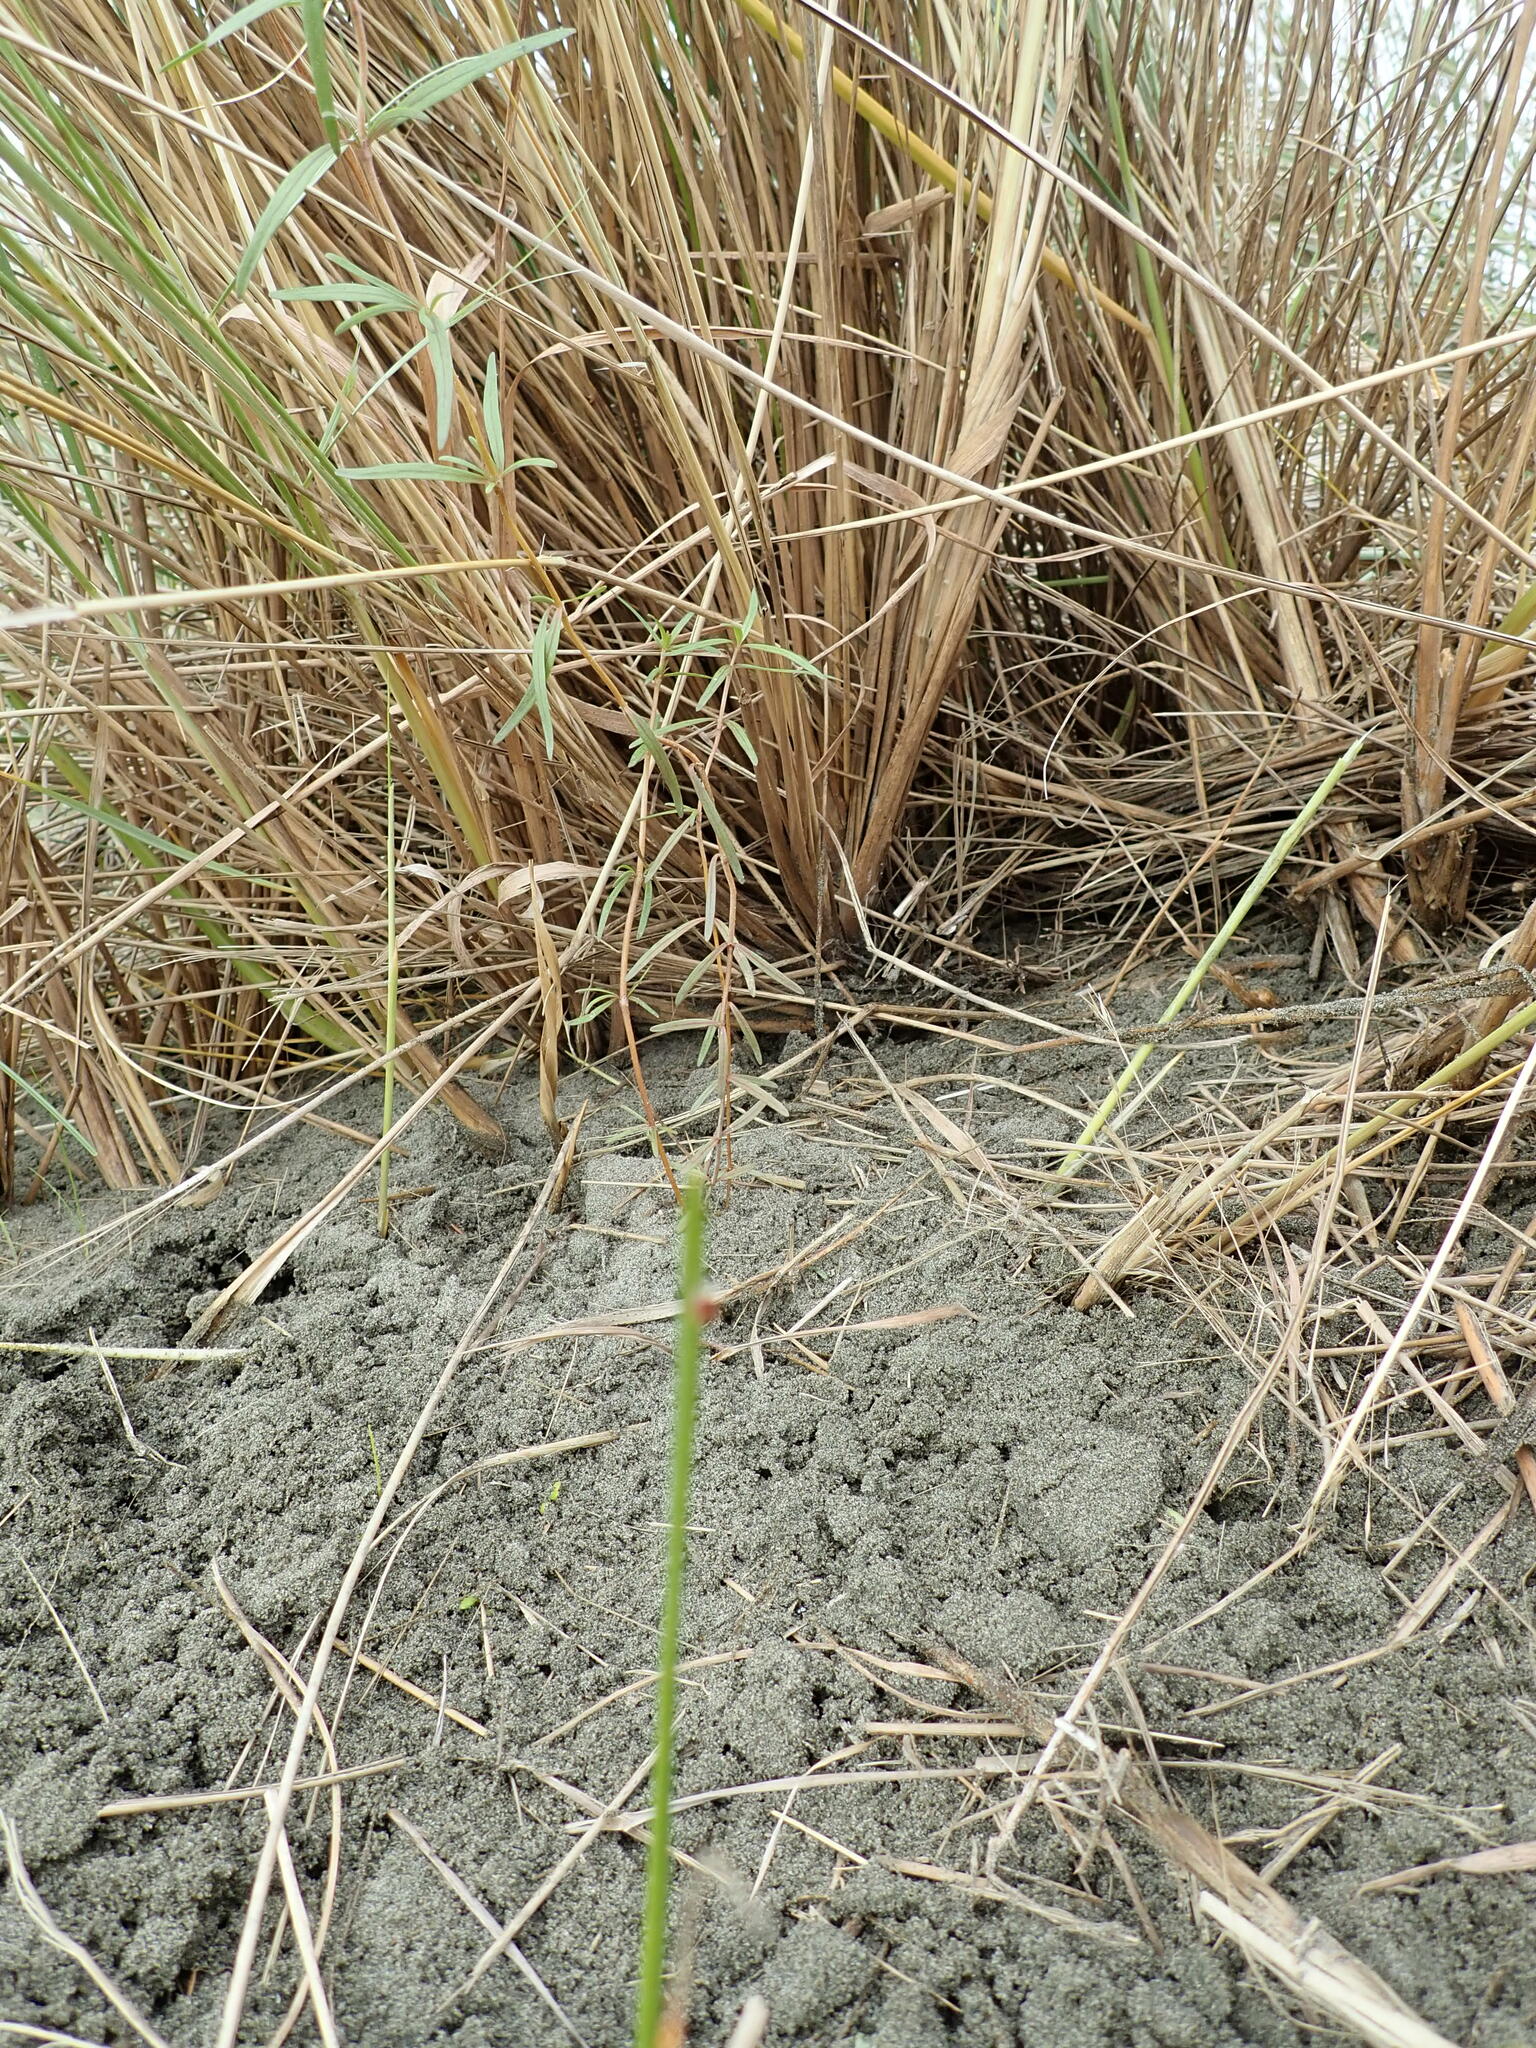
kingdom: Plantae
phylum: Tracheophyta
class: Magnoliopsida
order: Gentianales
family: Rubiaceae
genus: Coprosma
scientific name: Coprosma acerosa
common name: Sand coprosma
